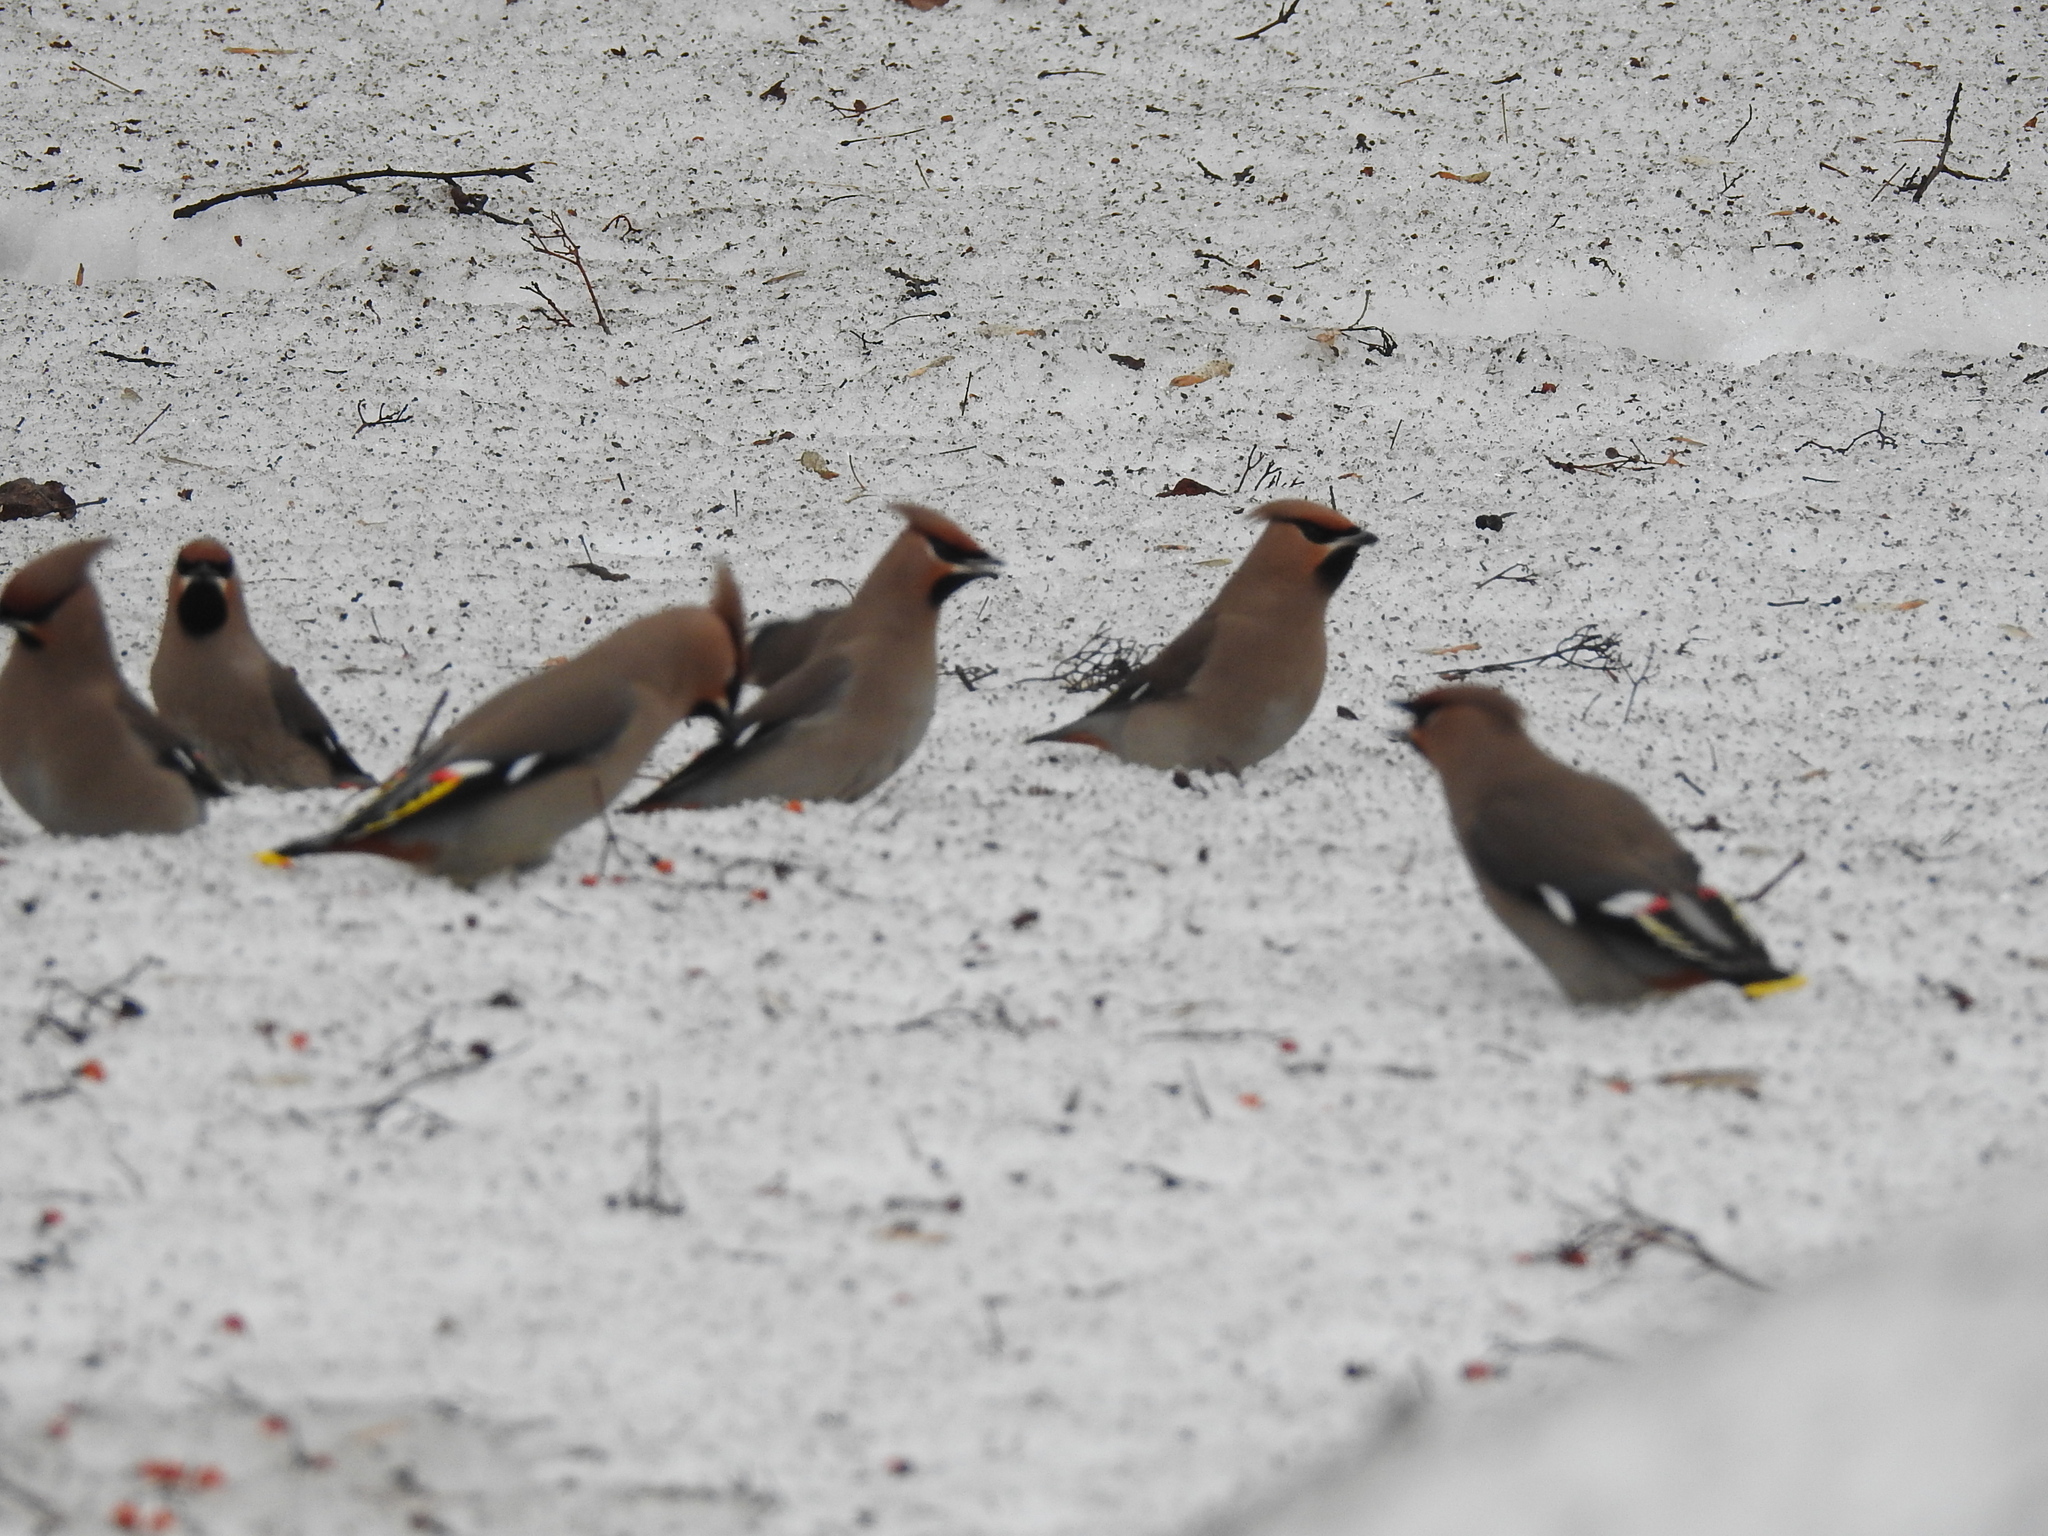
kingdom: Animalia
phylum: Chordata
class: Aves
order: Passeriformes
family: Bombycillidae
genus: Bombycilla
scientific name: Bombycilla garrulus
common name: Bohemian waxwing
